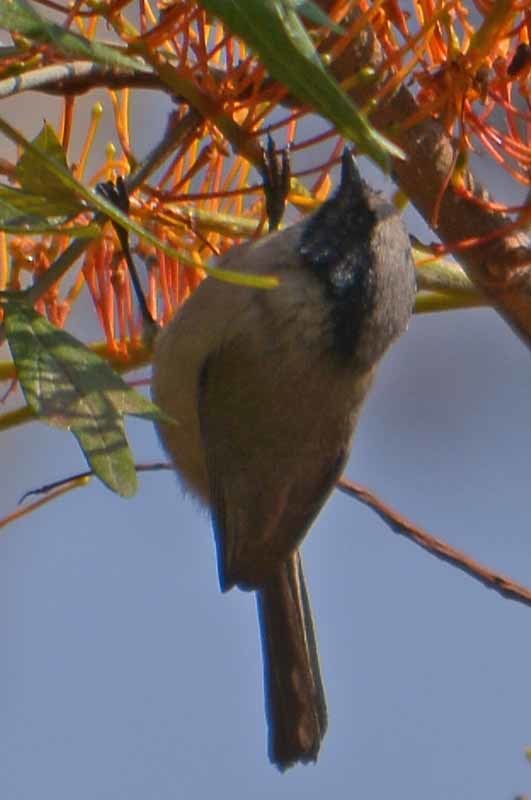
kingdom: Animalia
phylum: Chordata
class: Aves
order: Passeriformes
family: Aegithalidae
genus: Psaltriparus
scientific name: Psaltriparus minimus
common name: American bushtit
